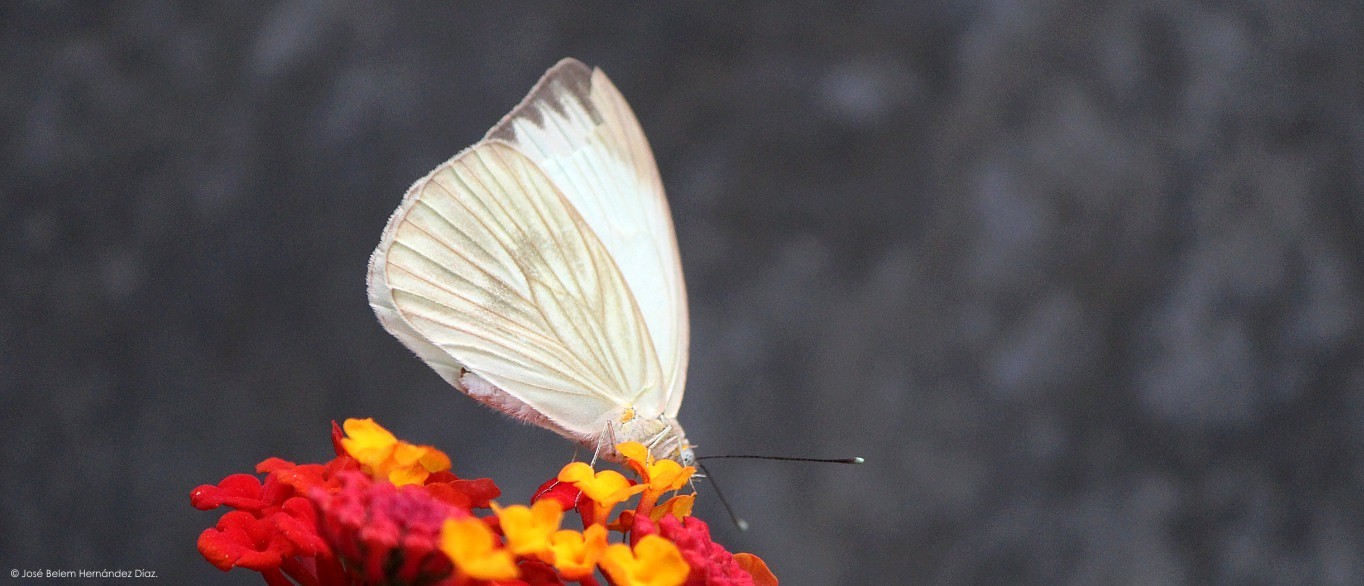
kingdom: Animalia
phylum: Arthropoda
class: Insecta
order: Lepidoptera
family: Pieridae
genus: Ascia
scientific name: Ascia monuste
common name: Great southern white
